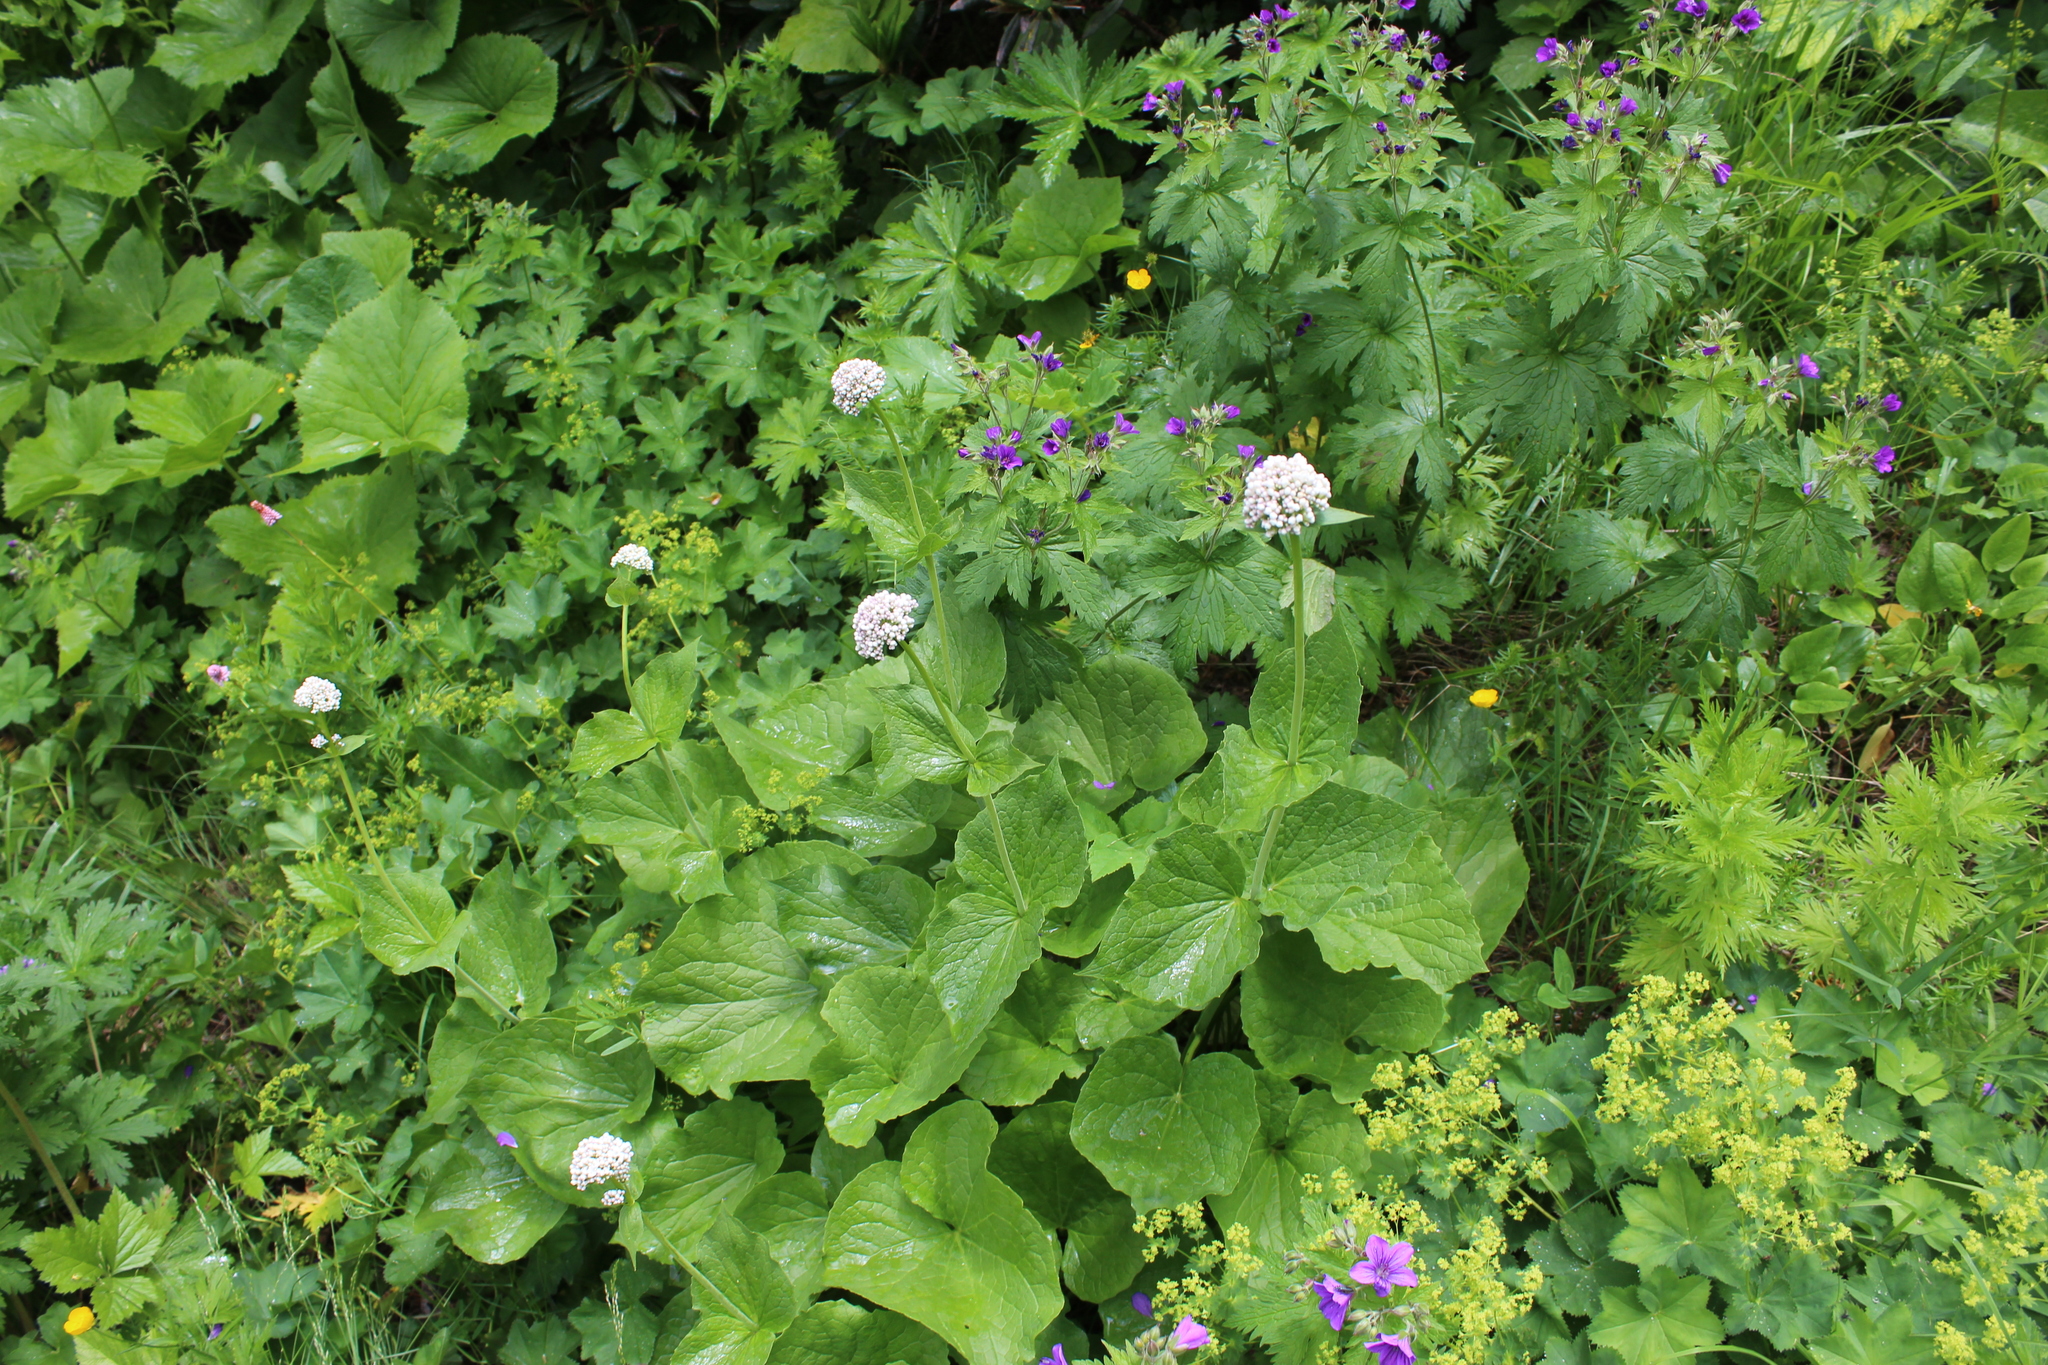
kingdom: Plantae
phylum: Tracheophyta
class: Magnoliopsida
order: Dipsacales
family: Caprifoliaceae
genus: Valeriana
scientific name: Valeriana alliariifolia
